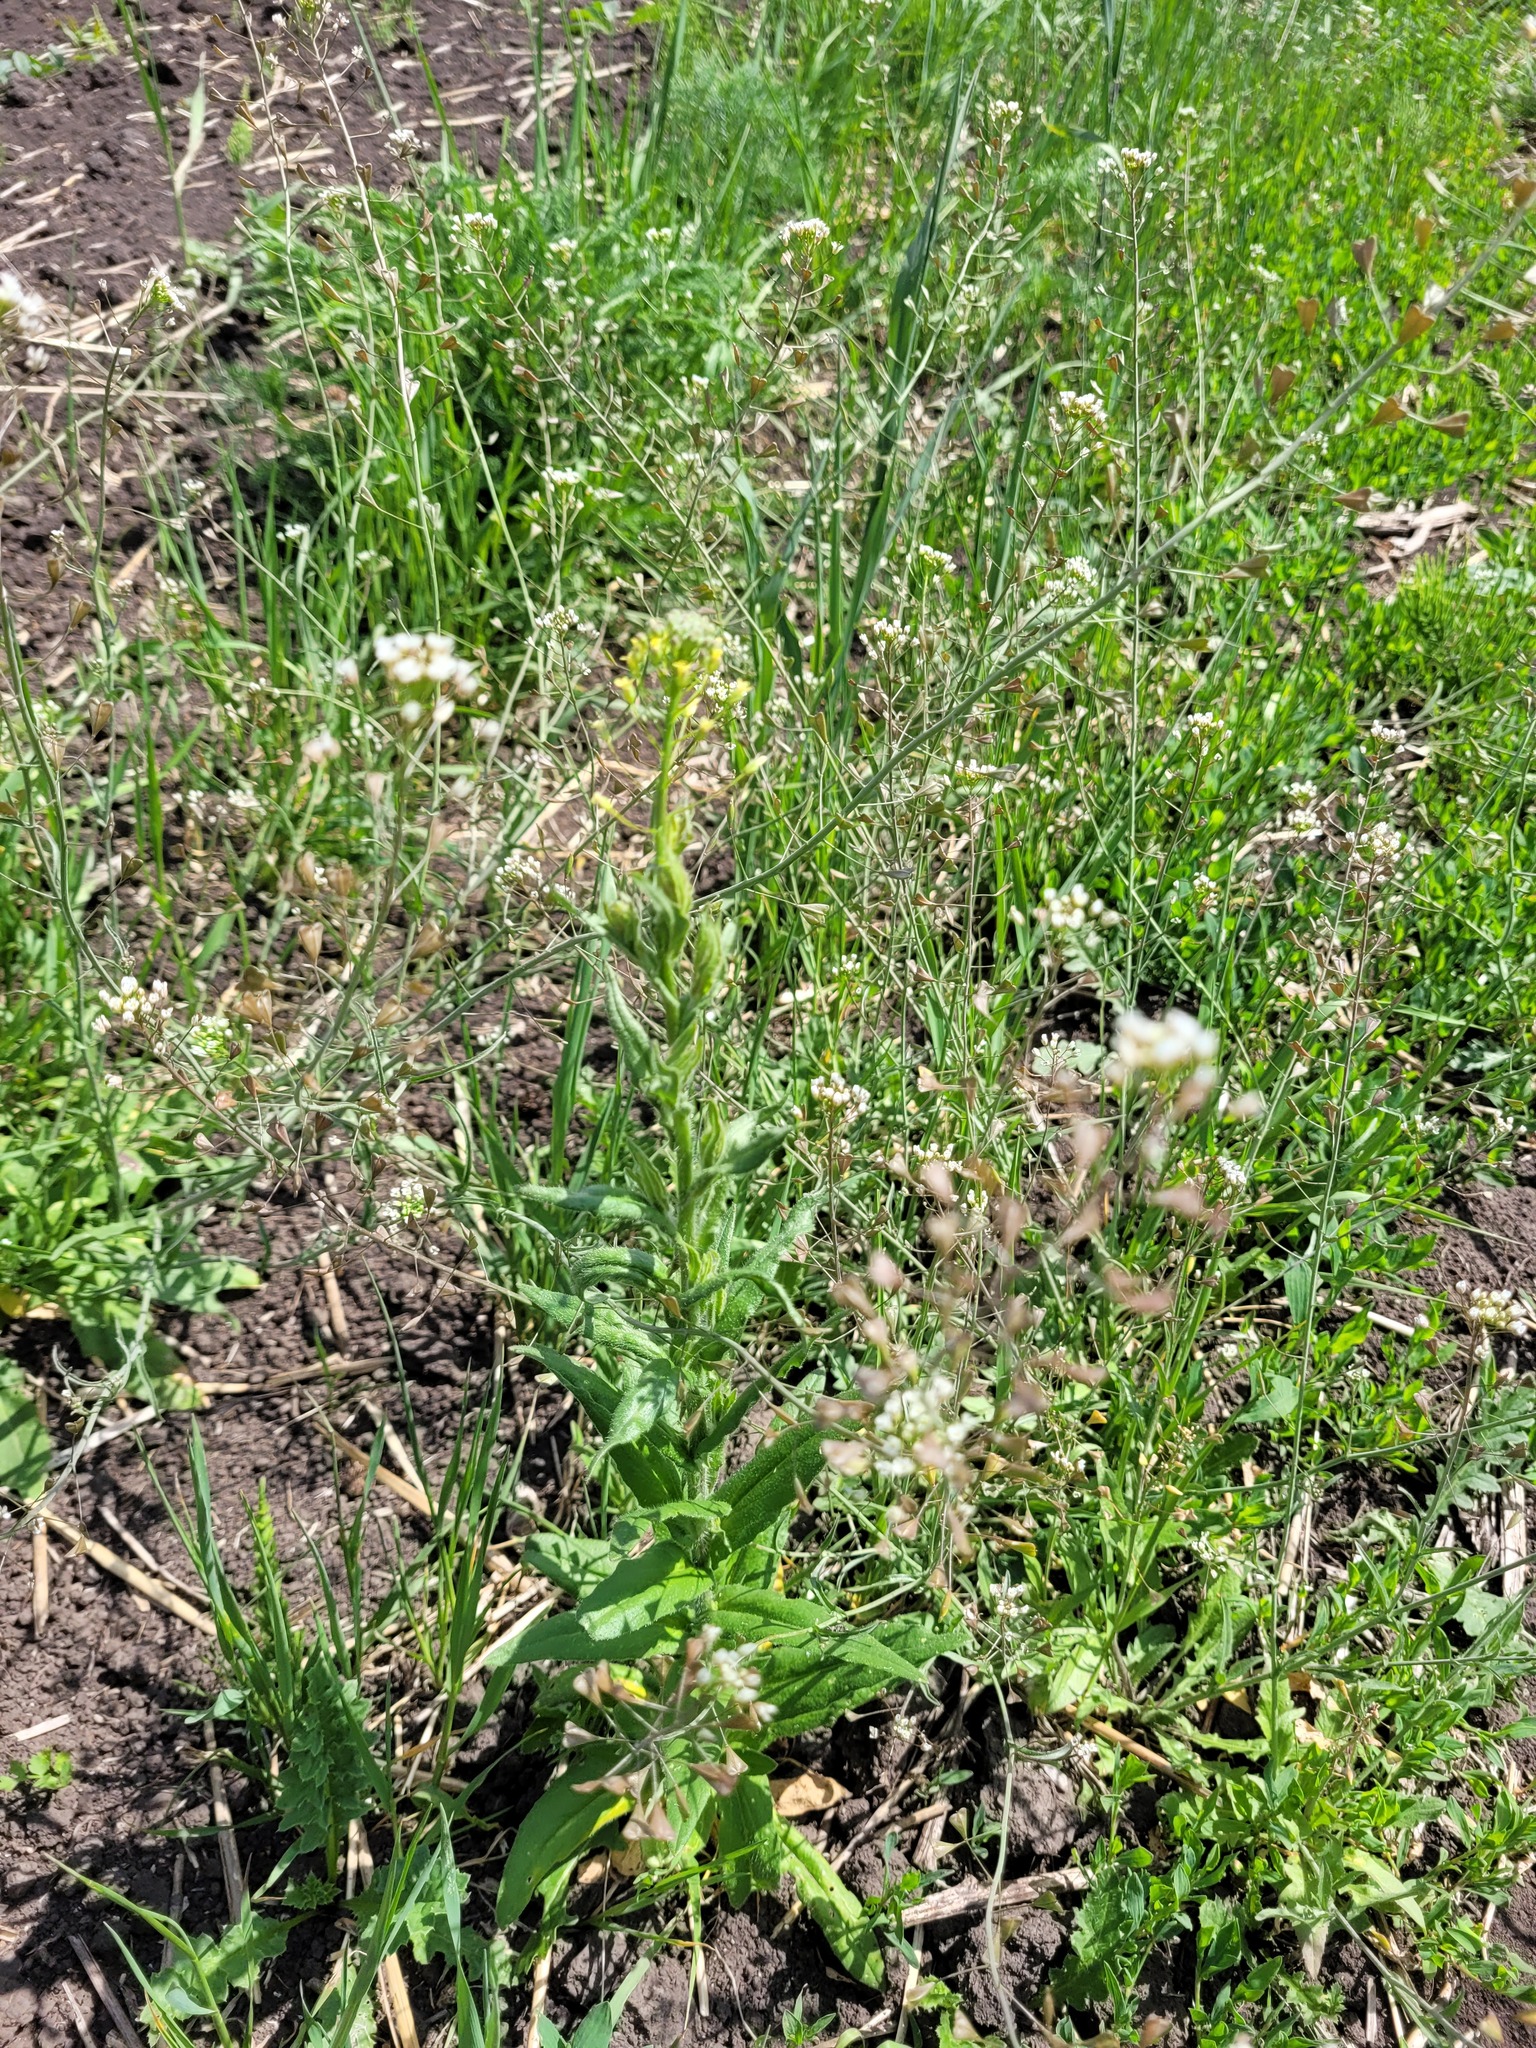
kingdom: Plantae
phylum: Tracheophyta
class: Magnoliopsida
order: Brassicales
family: Brassicaceae
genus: Camelina
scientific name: Camelina microcarpa
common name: Lesser gold-of-pleasure
